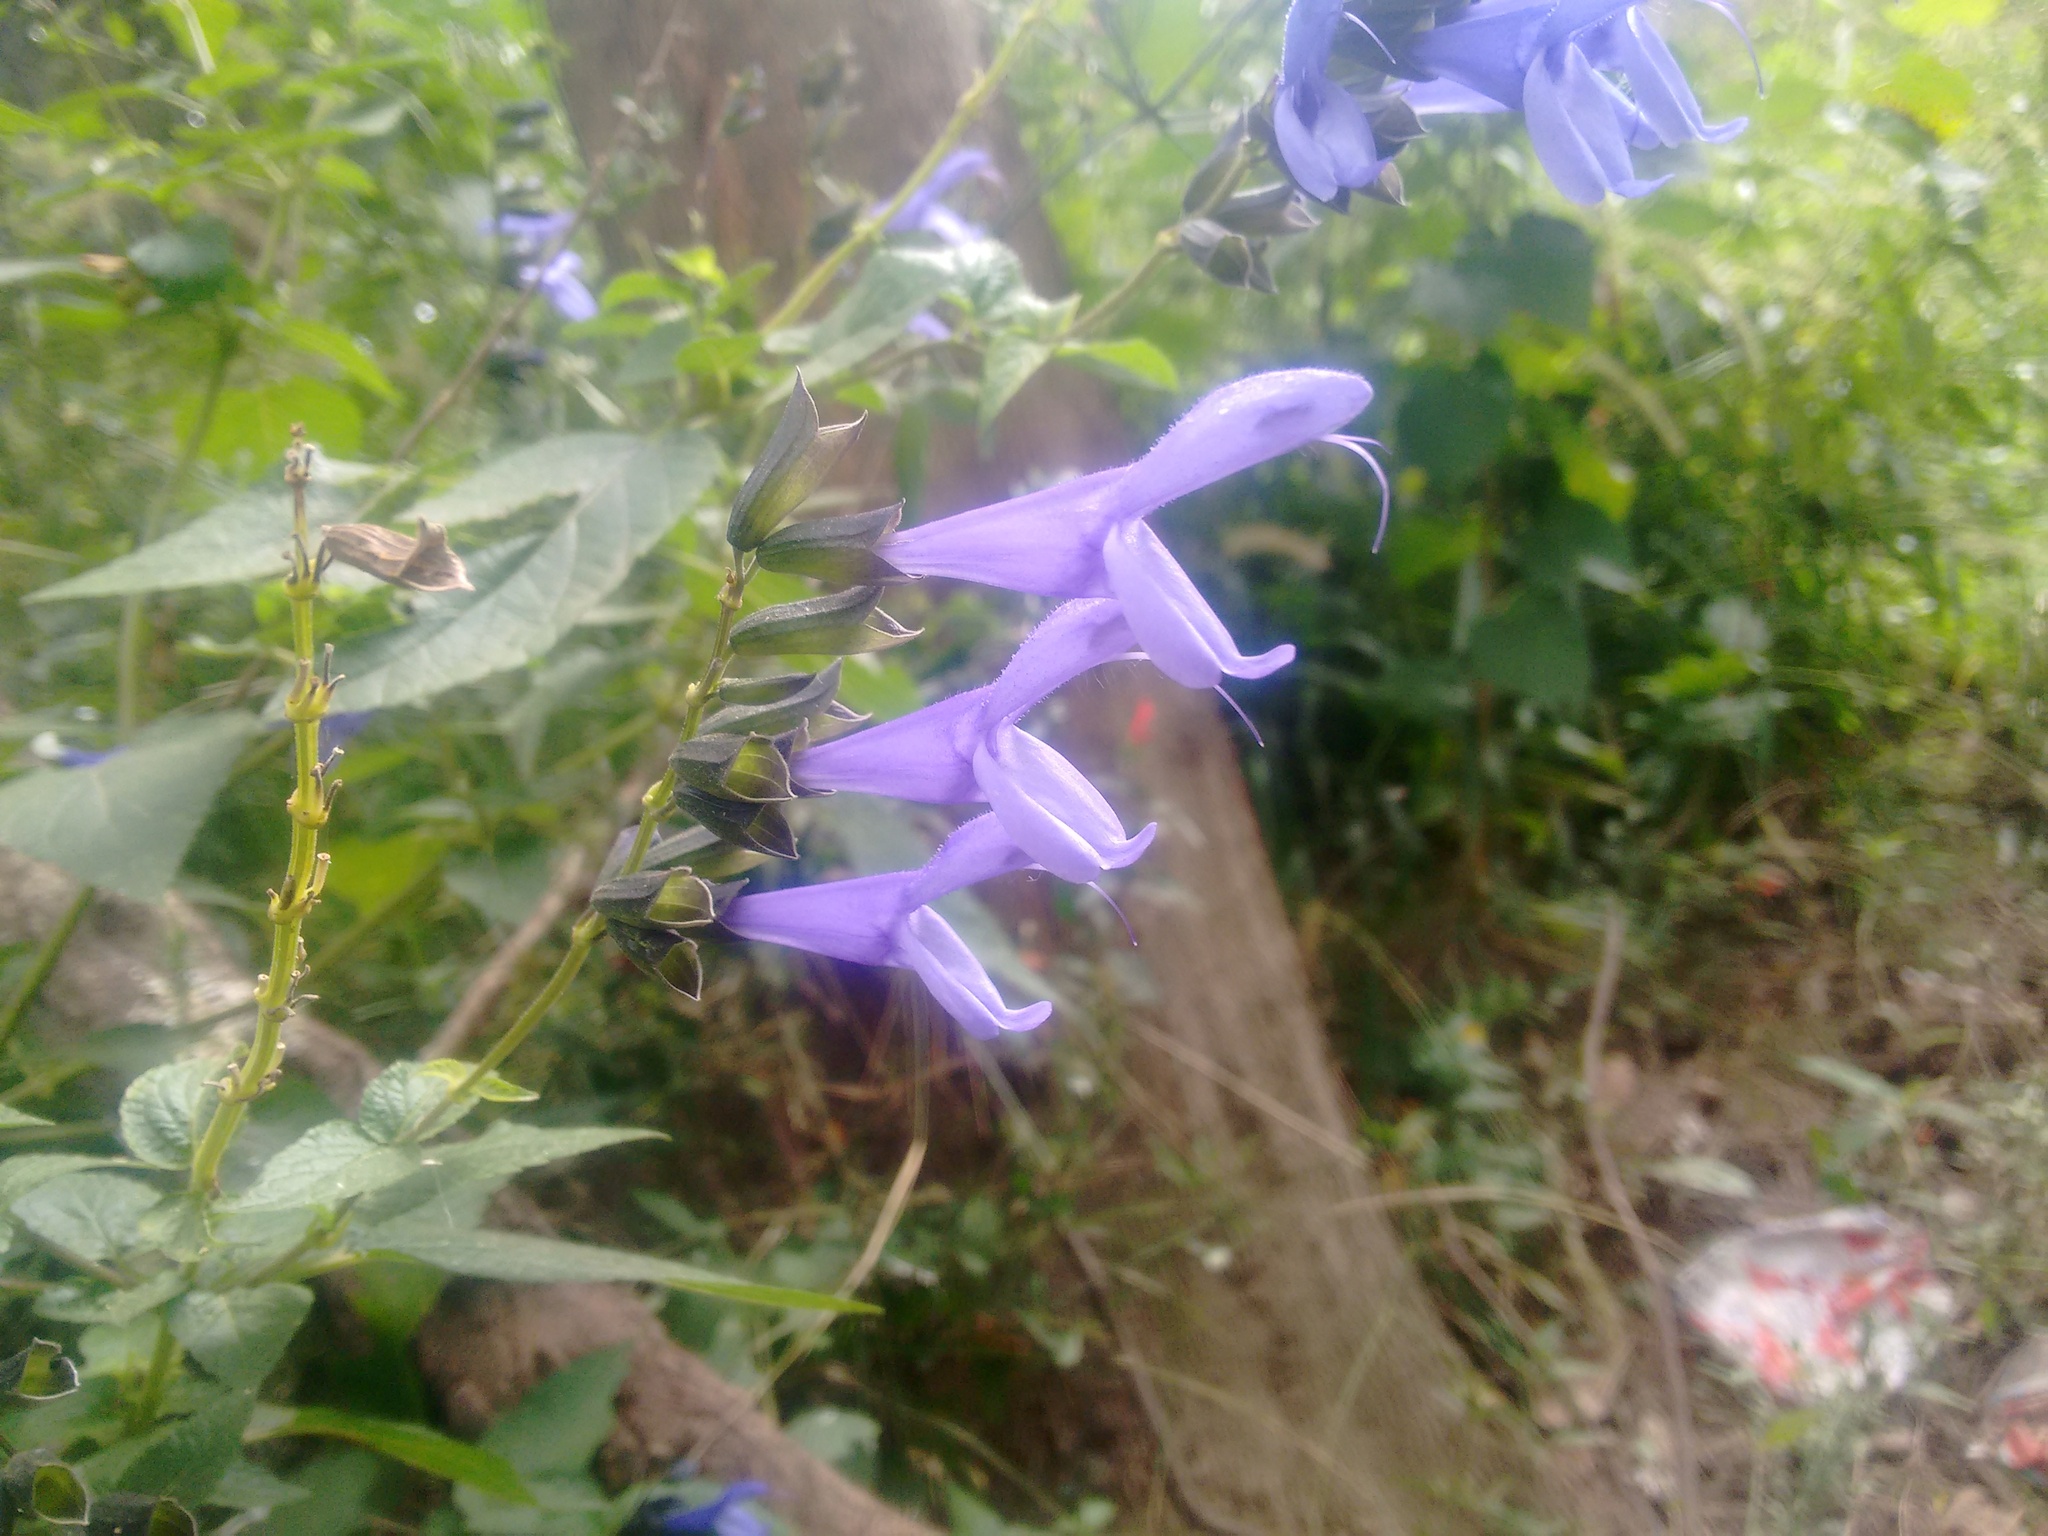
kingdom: Plantae
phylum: Tracheophyta
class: Magnoliopsida
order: Lamiales
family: Lamiaceae
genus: Salvia
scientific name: Salvia guaranitica
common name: Anise-scented sage
